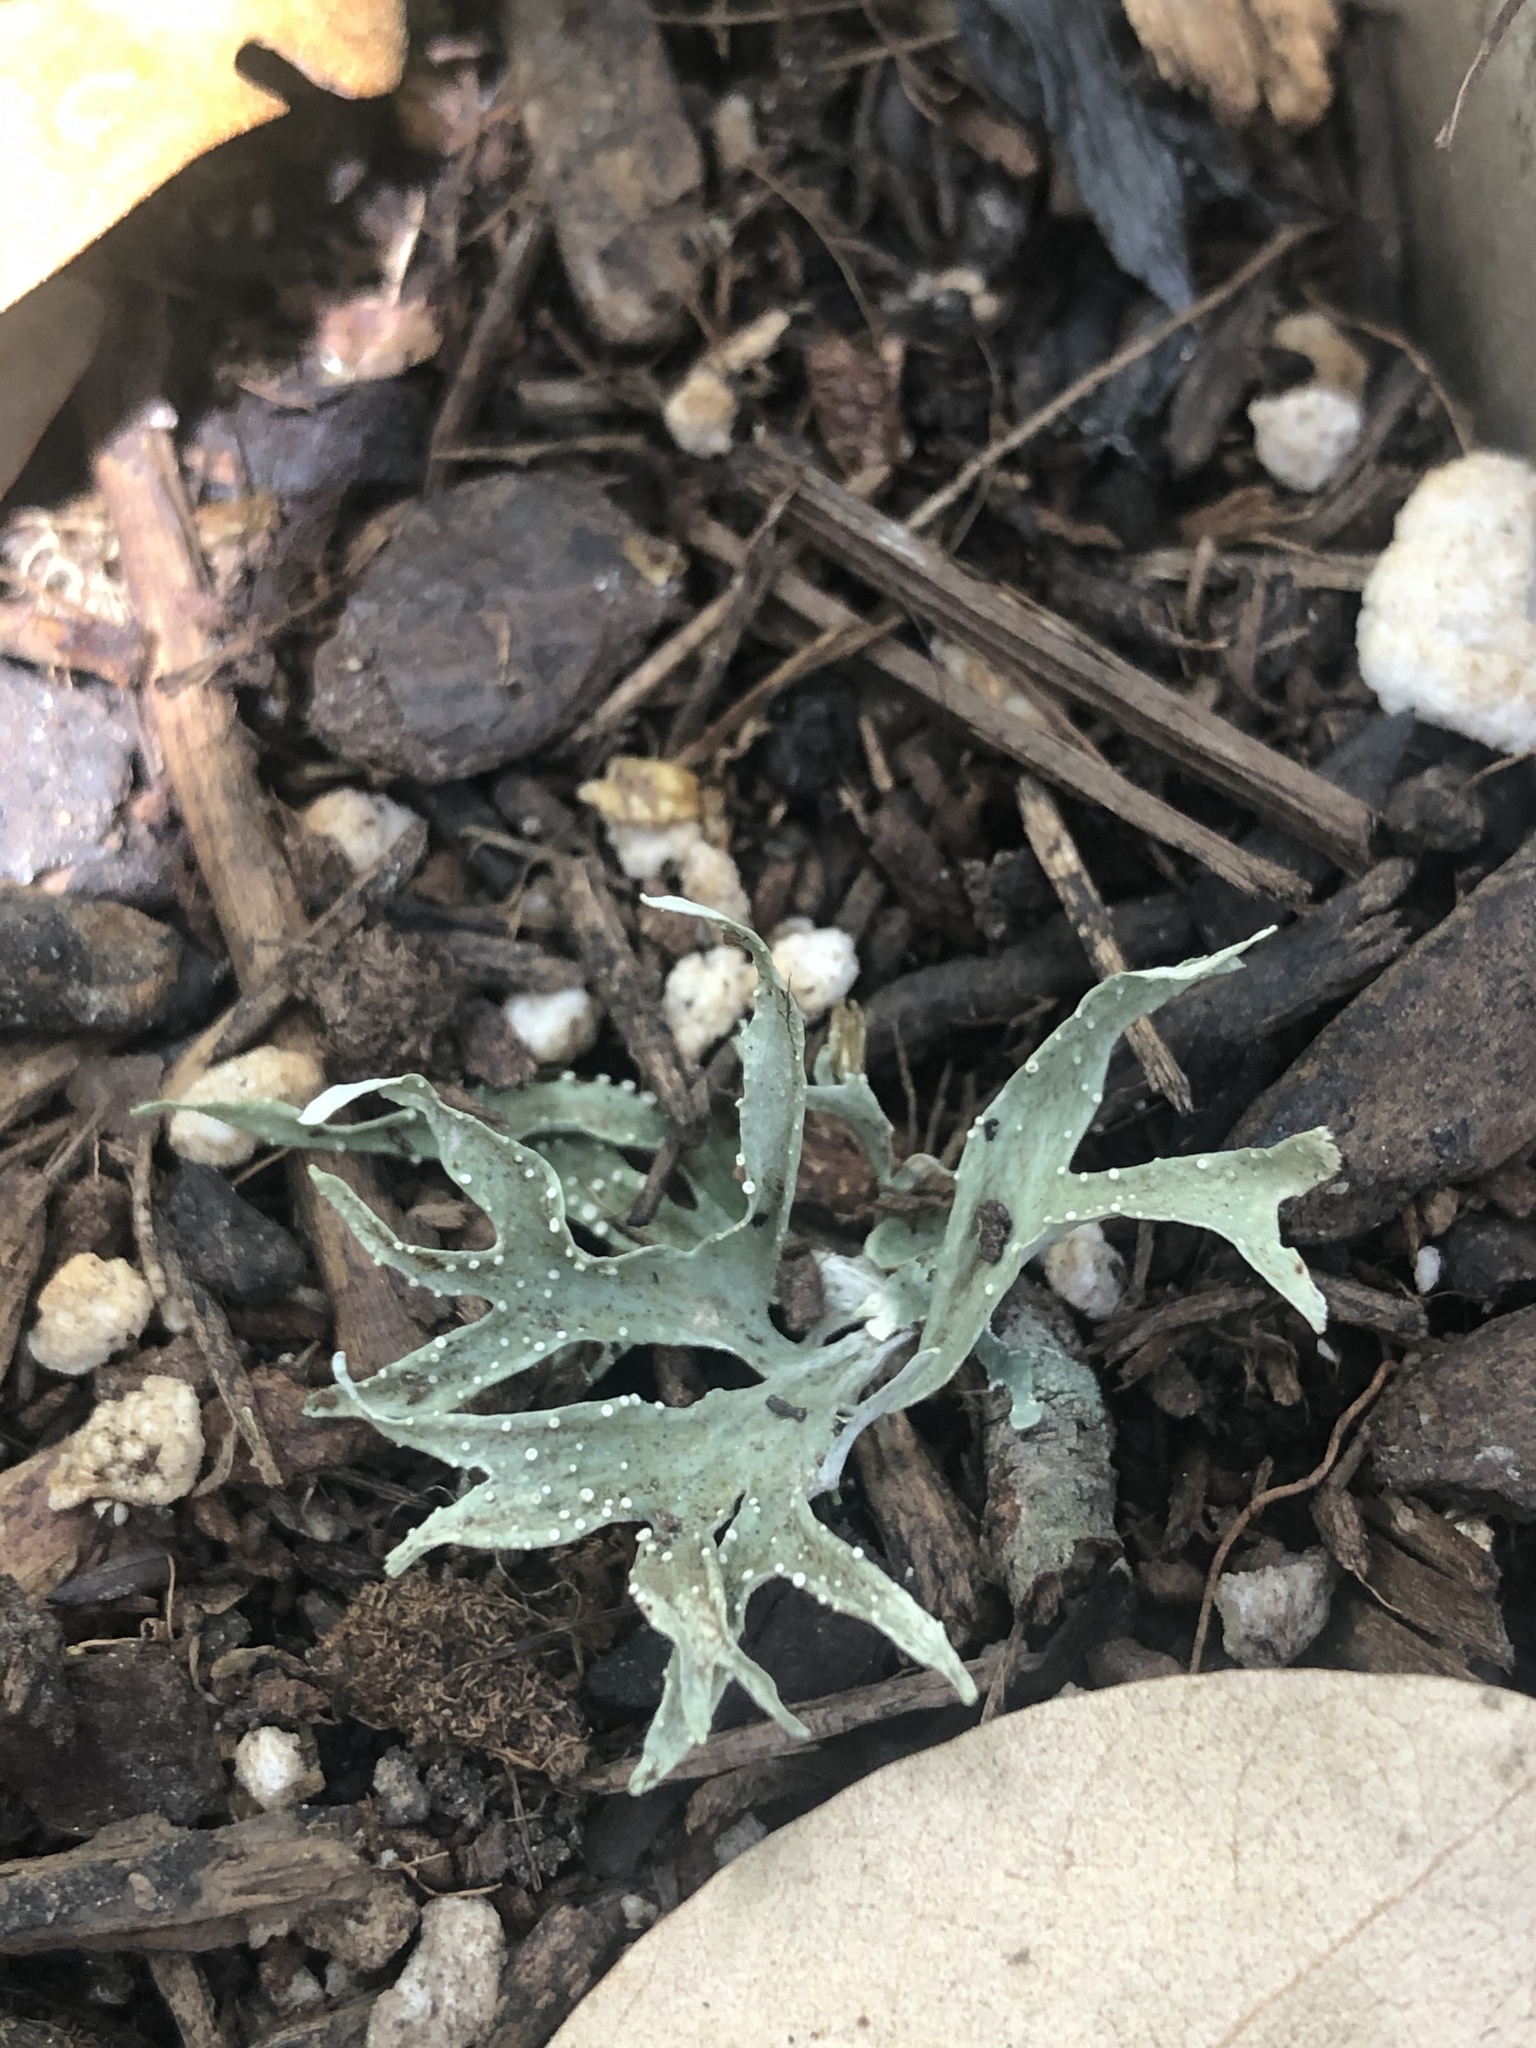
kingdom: Fungi
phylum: Ascomycota
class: Lecanoromycetes
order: Lecanorales
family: Ramalinaceae
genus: Ramalina
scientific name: Ramalina celastri
